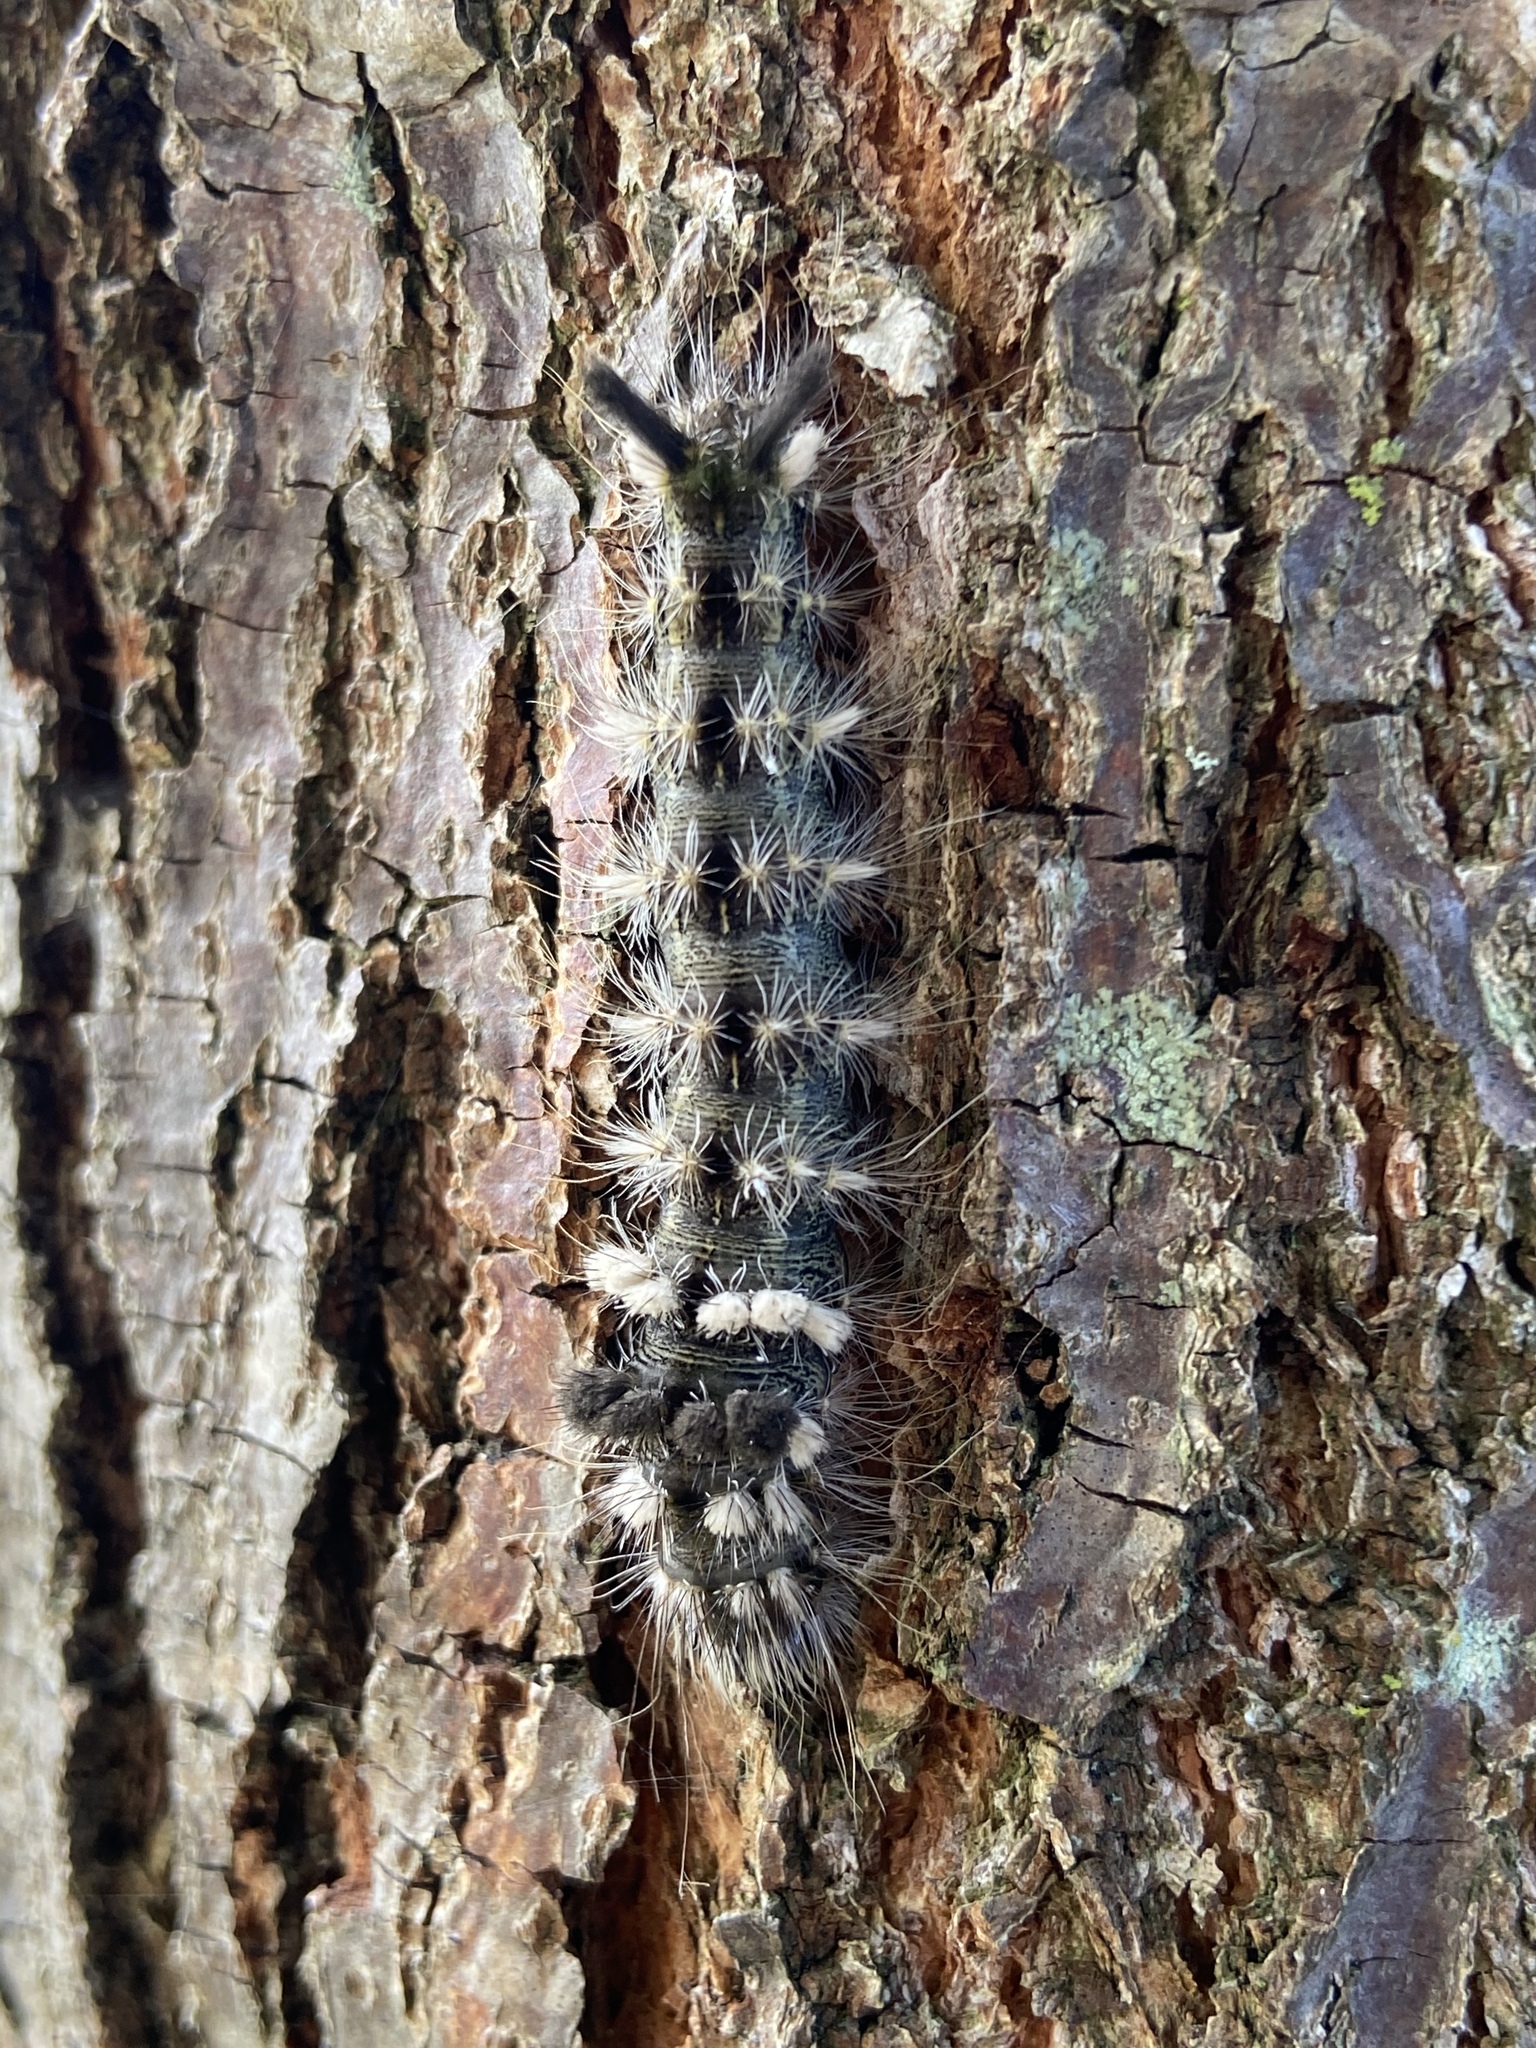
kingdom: Animalia
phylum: Arthropoda
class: Insecta
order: Lepidoptera
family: Noctuidae
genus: Acronicta
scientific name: Acronicta impleta
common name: Powdered dagger
